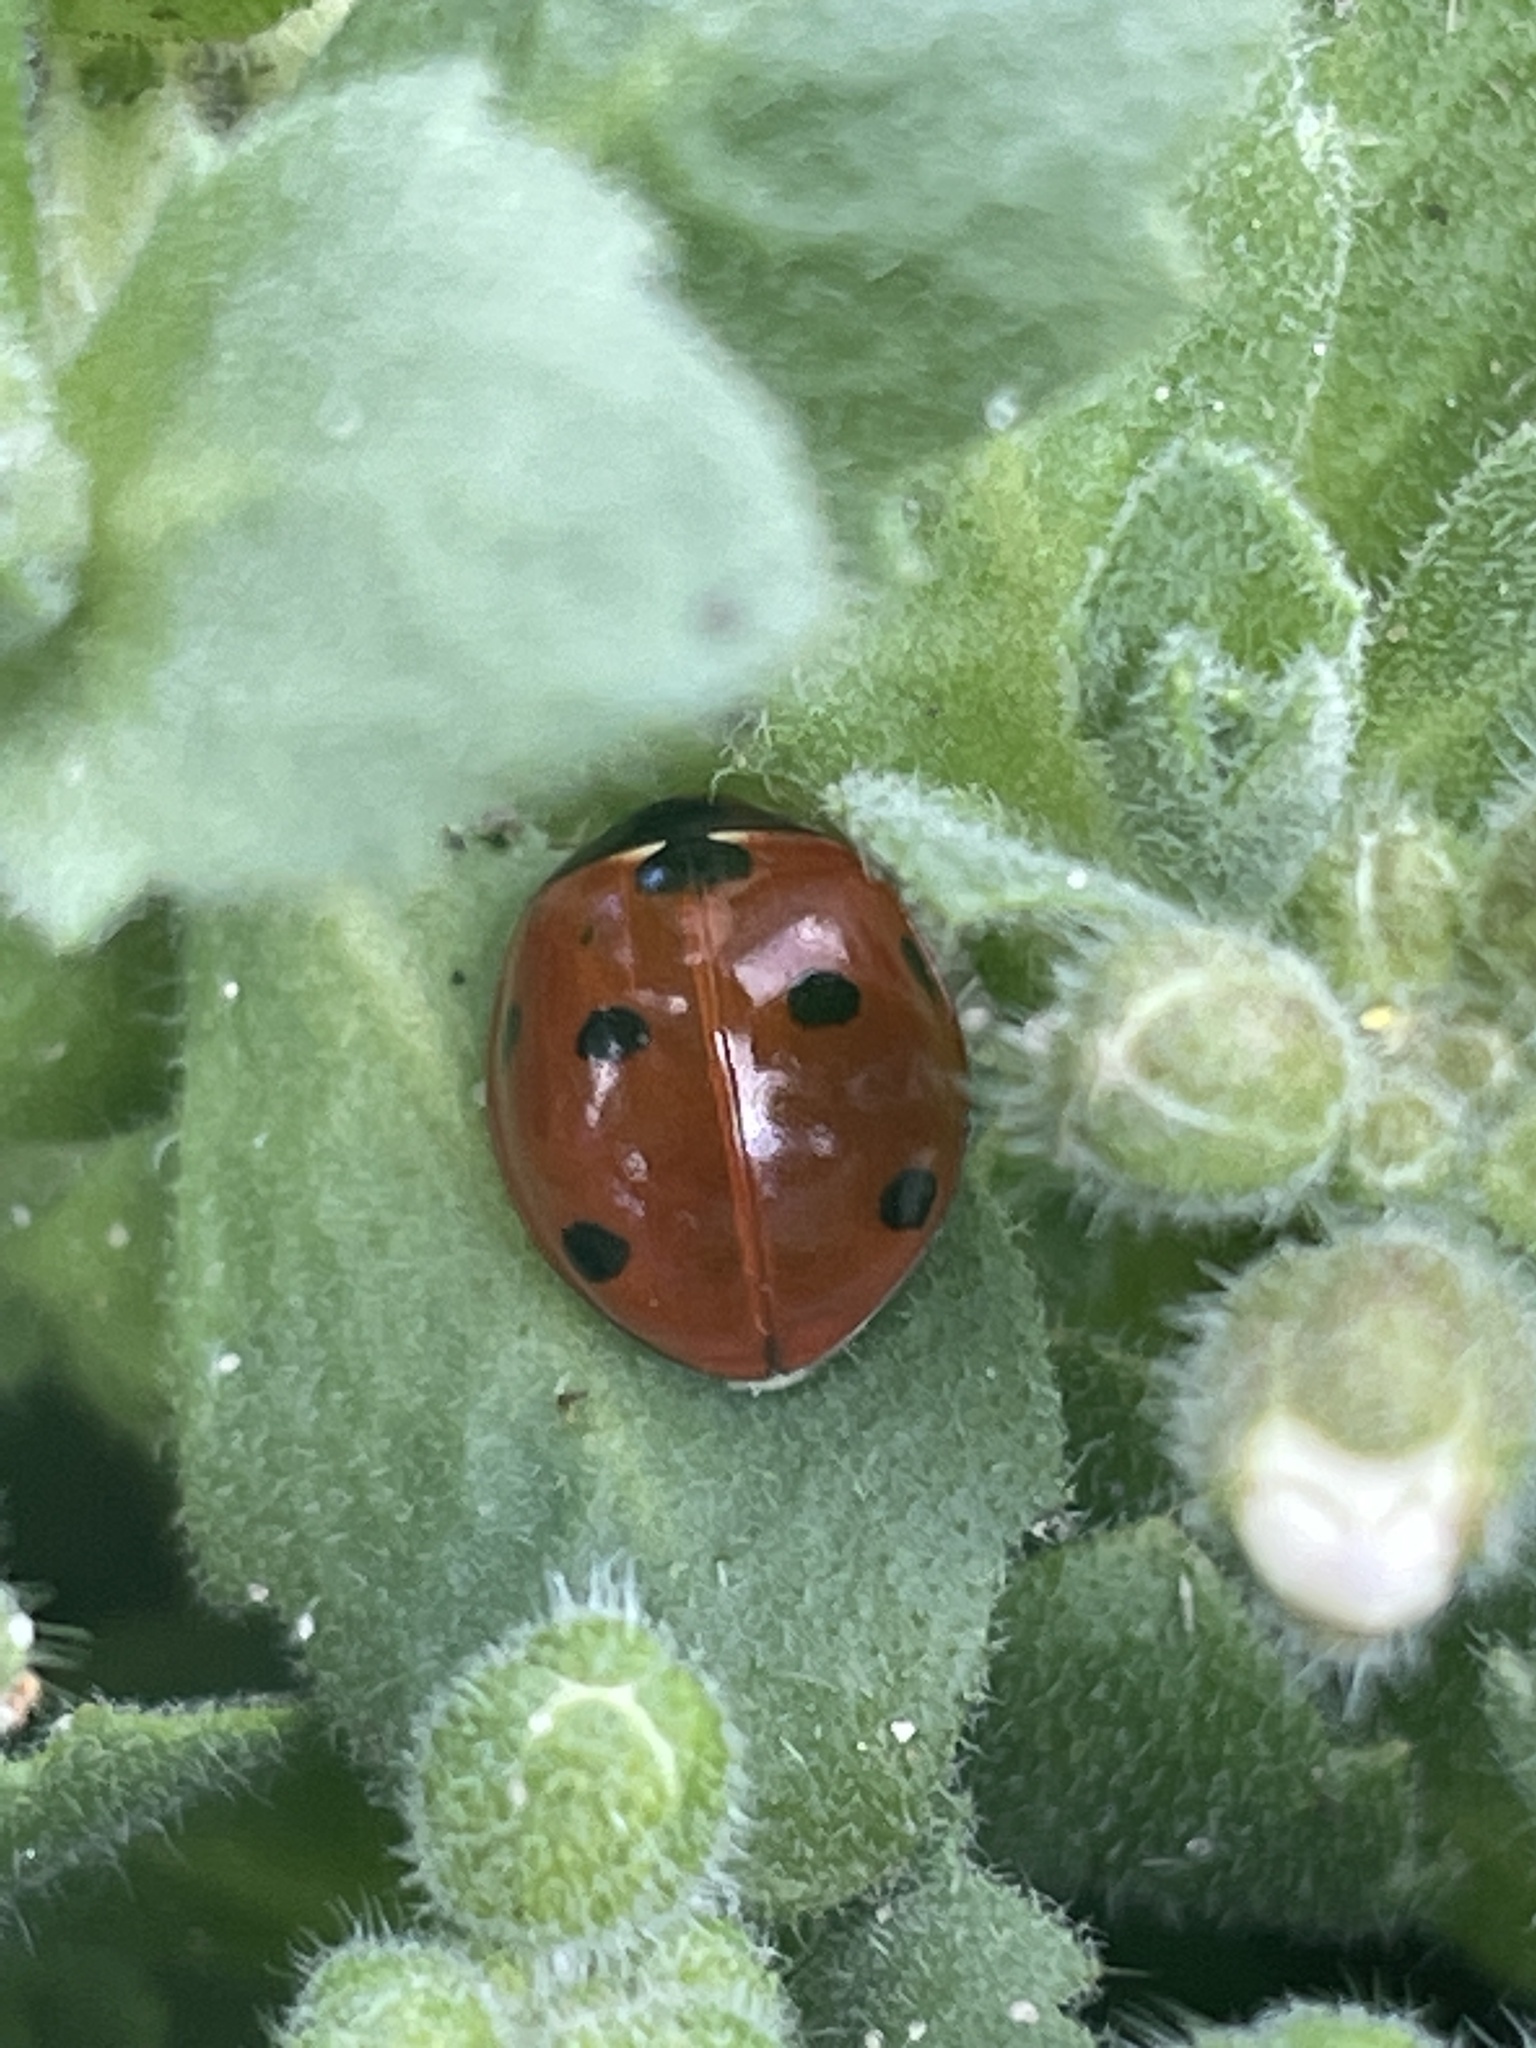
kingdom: Animalia
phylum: Arthropoda
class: Insecta
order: Coleoptera
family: Coccinellidae
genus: Coccinella
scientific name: Coccinella septempunctata
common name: Sevenspotted lady beetle
